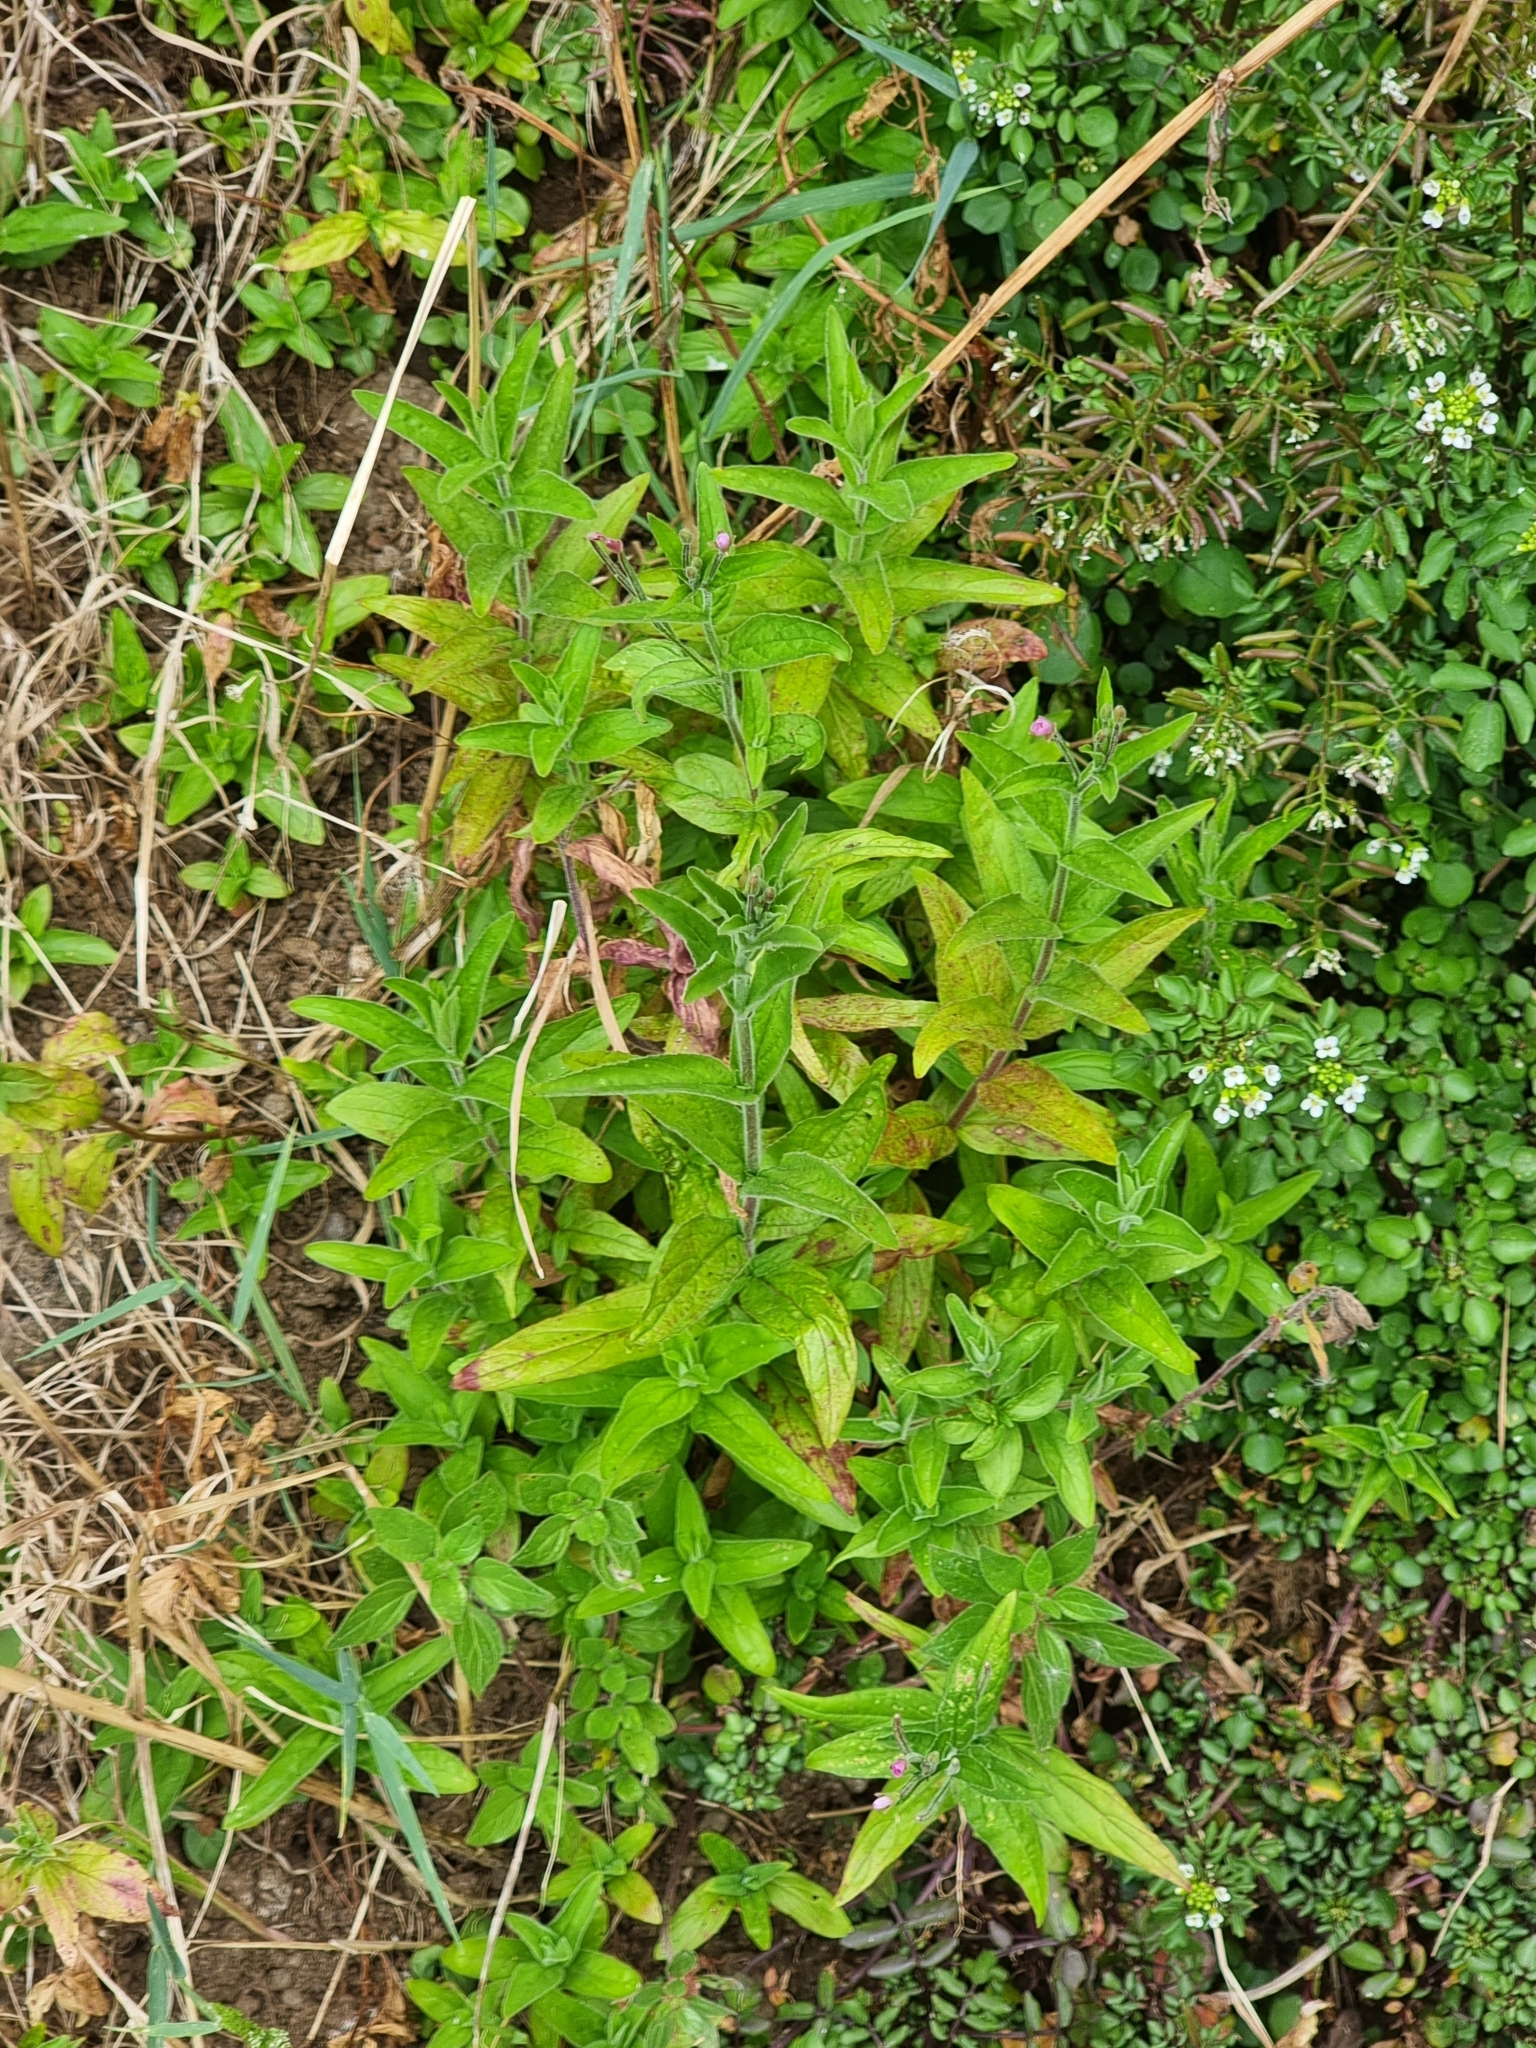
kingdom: Plantae
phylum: Tracheophyta
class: Magnoliopsida
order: Myrtales
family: Onagraceae
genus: Epilobium
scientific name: Epilobium parviflorum
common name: Hoary willowherb
